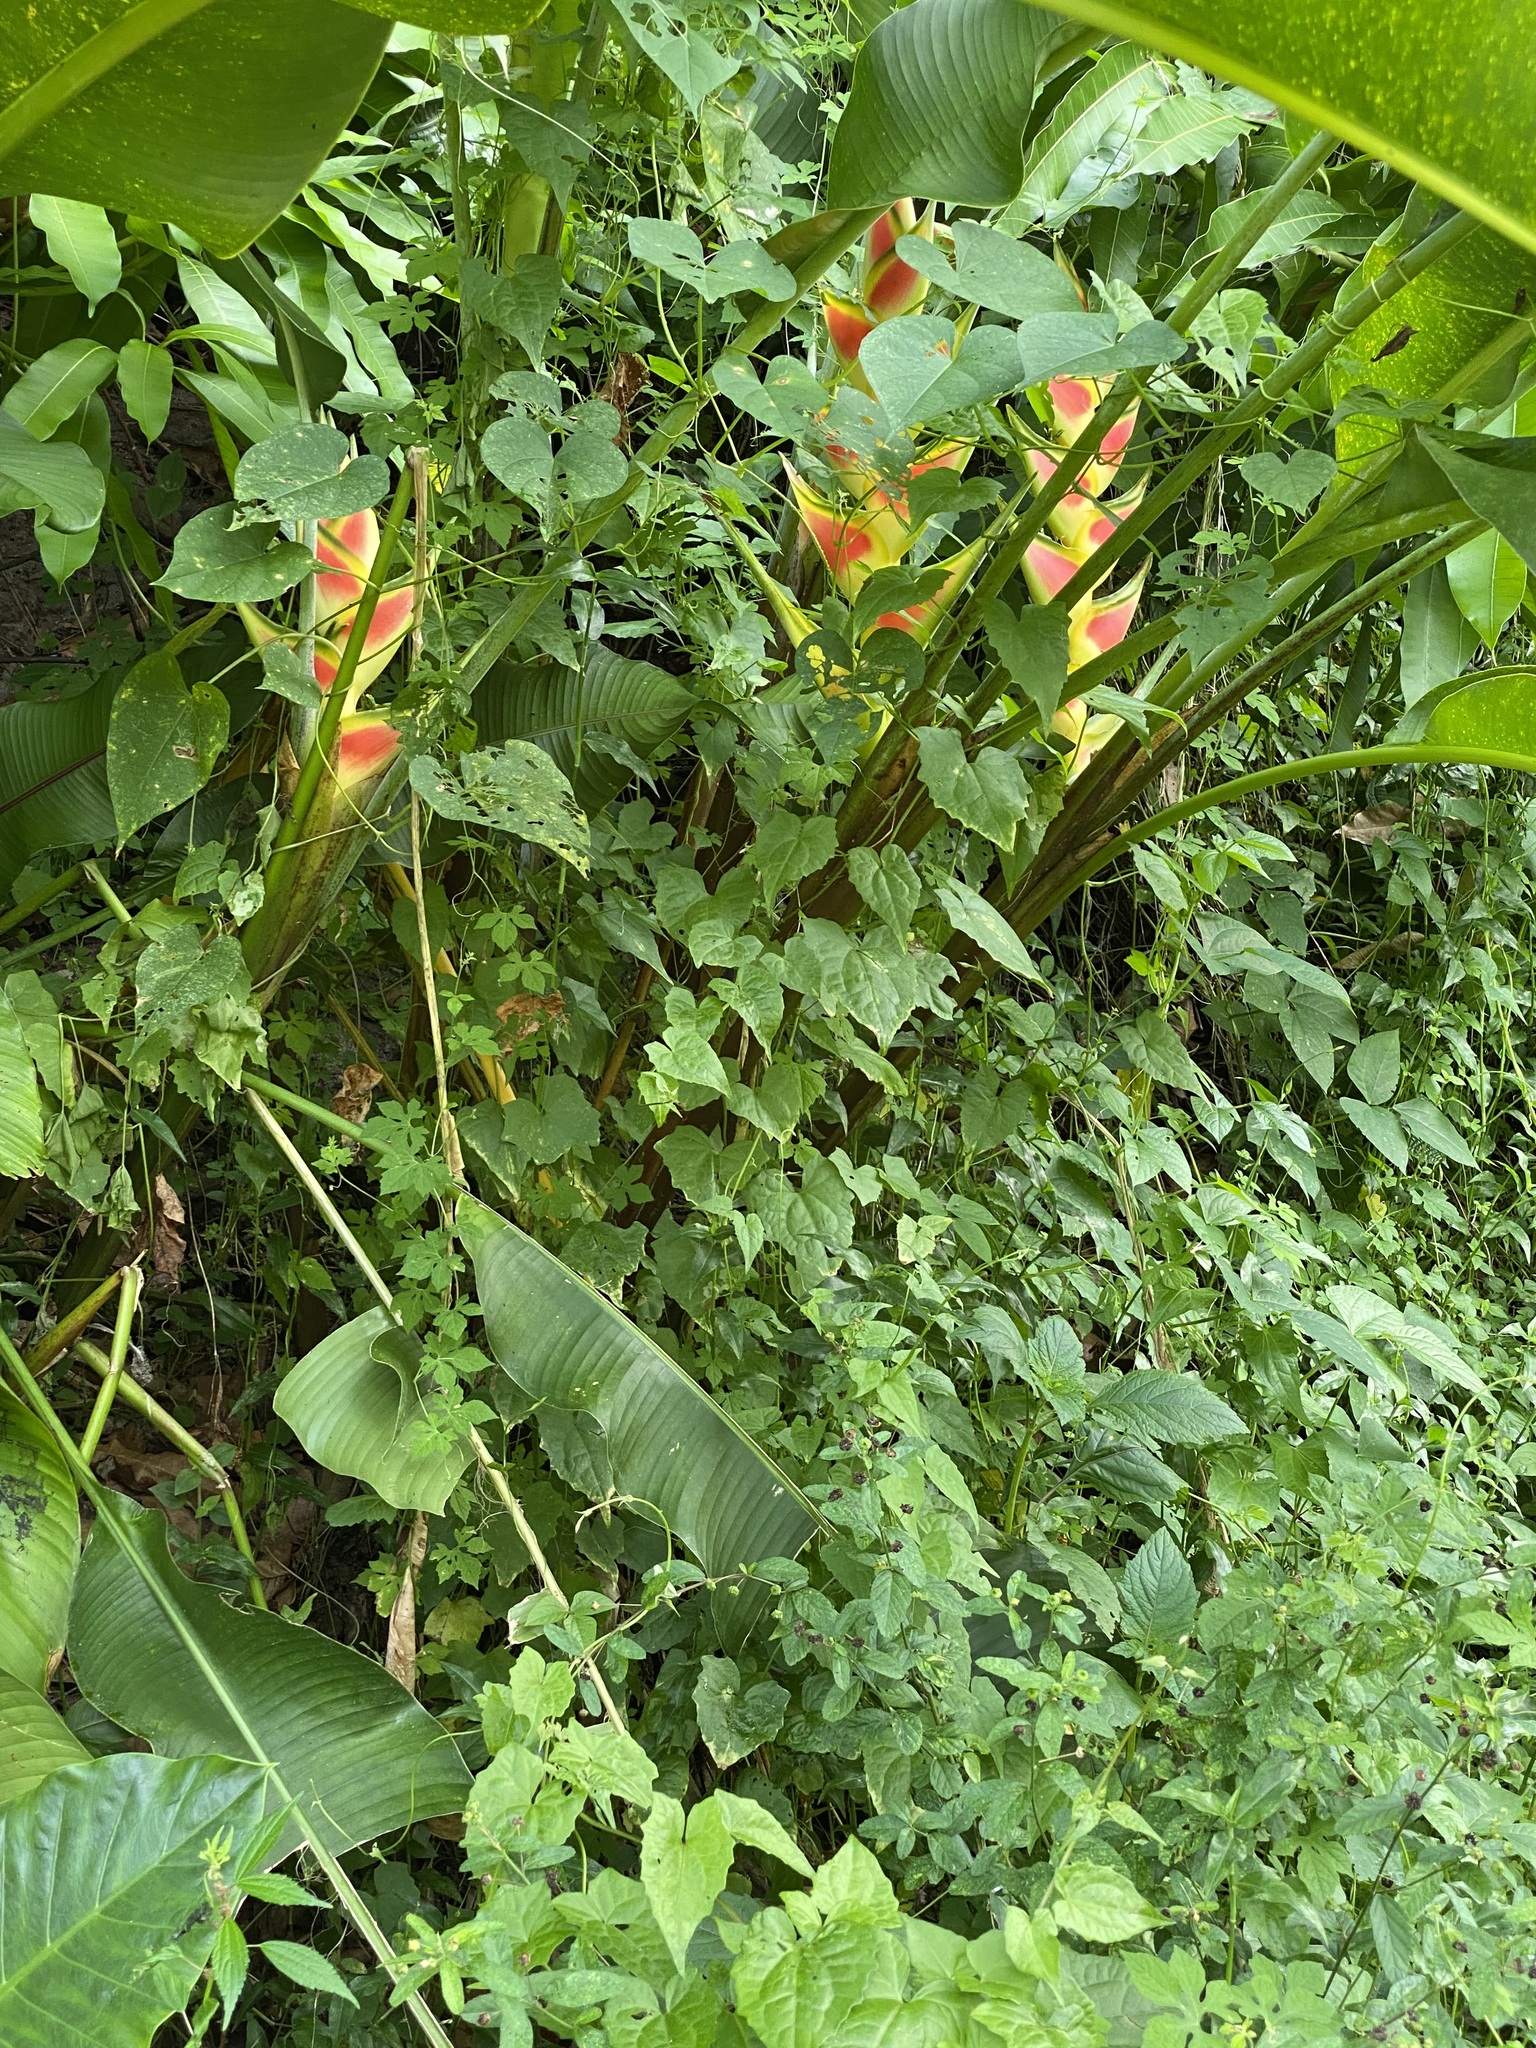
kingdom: Plantae
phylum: Tracheophyta
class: Liliopsida
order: Zingiberales
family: Heliconiaceae
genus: Heliconia
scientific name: Heliconia wagneriana
